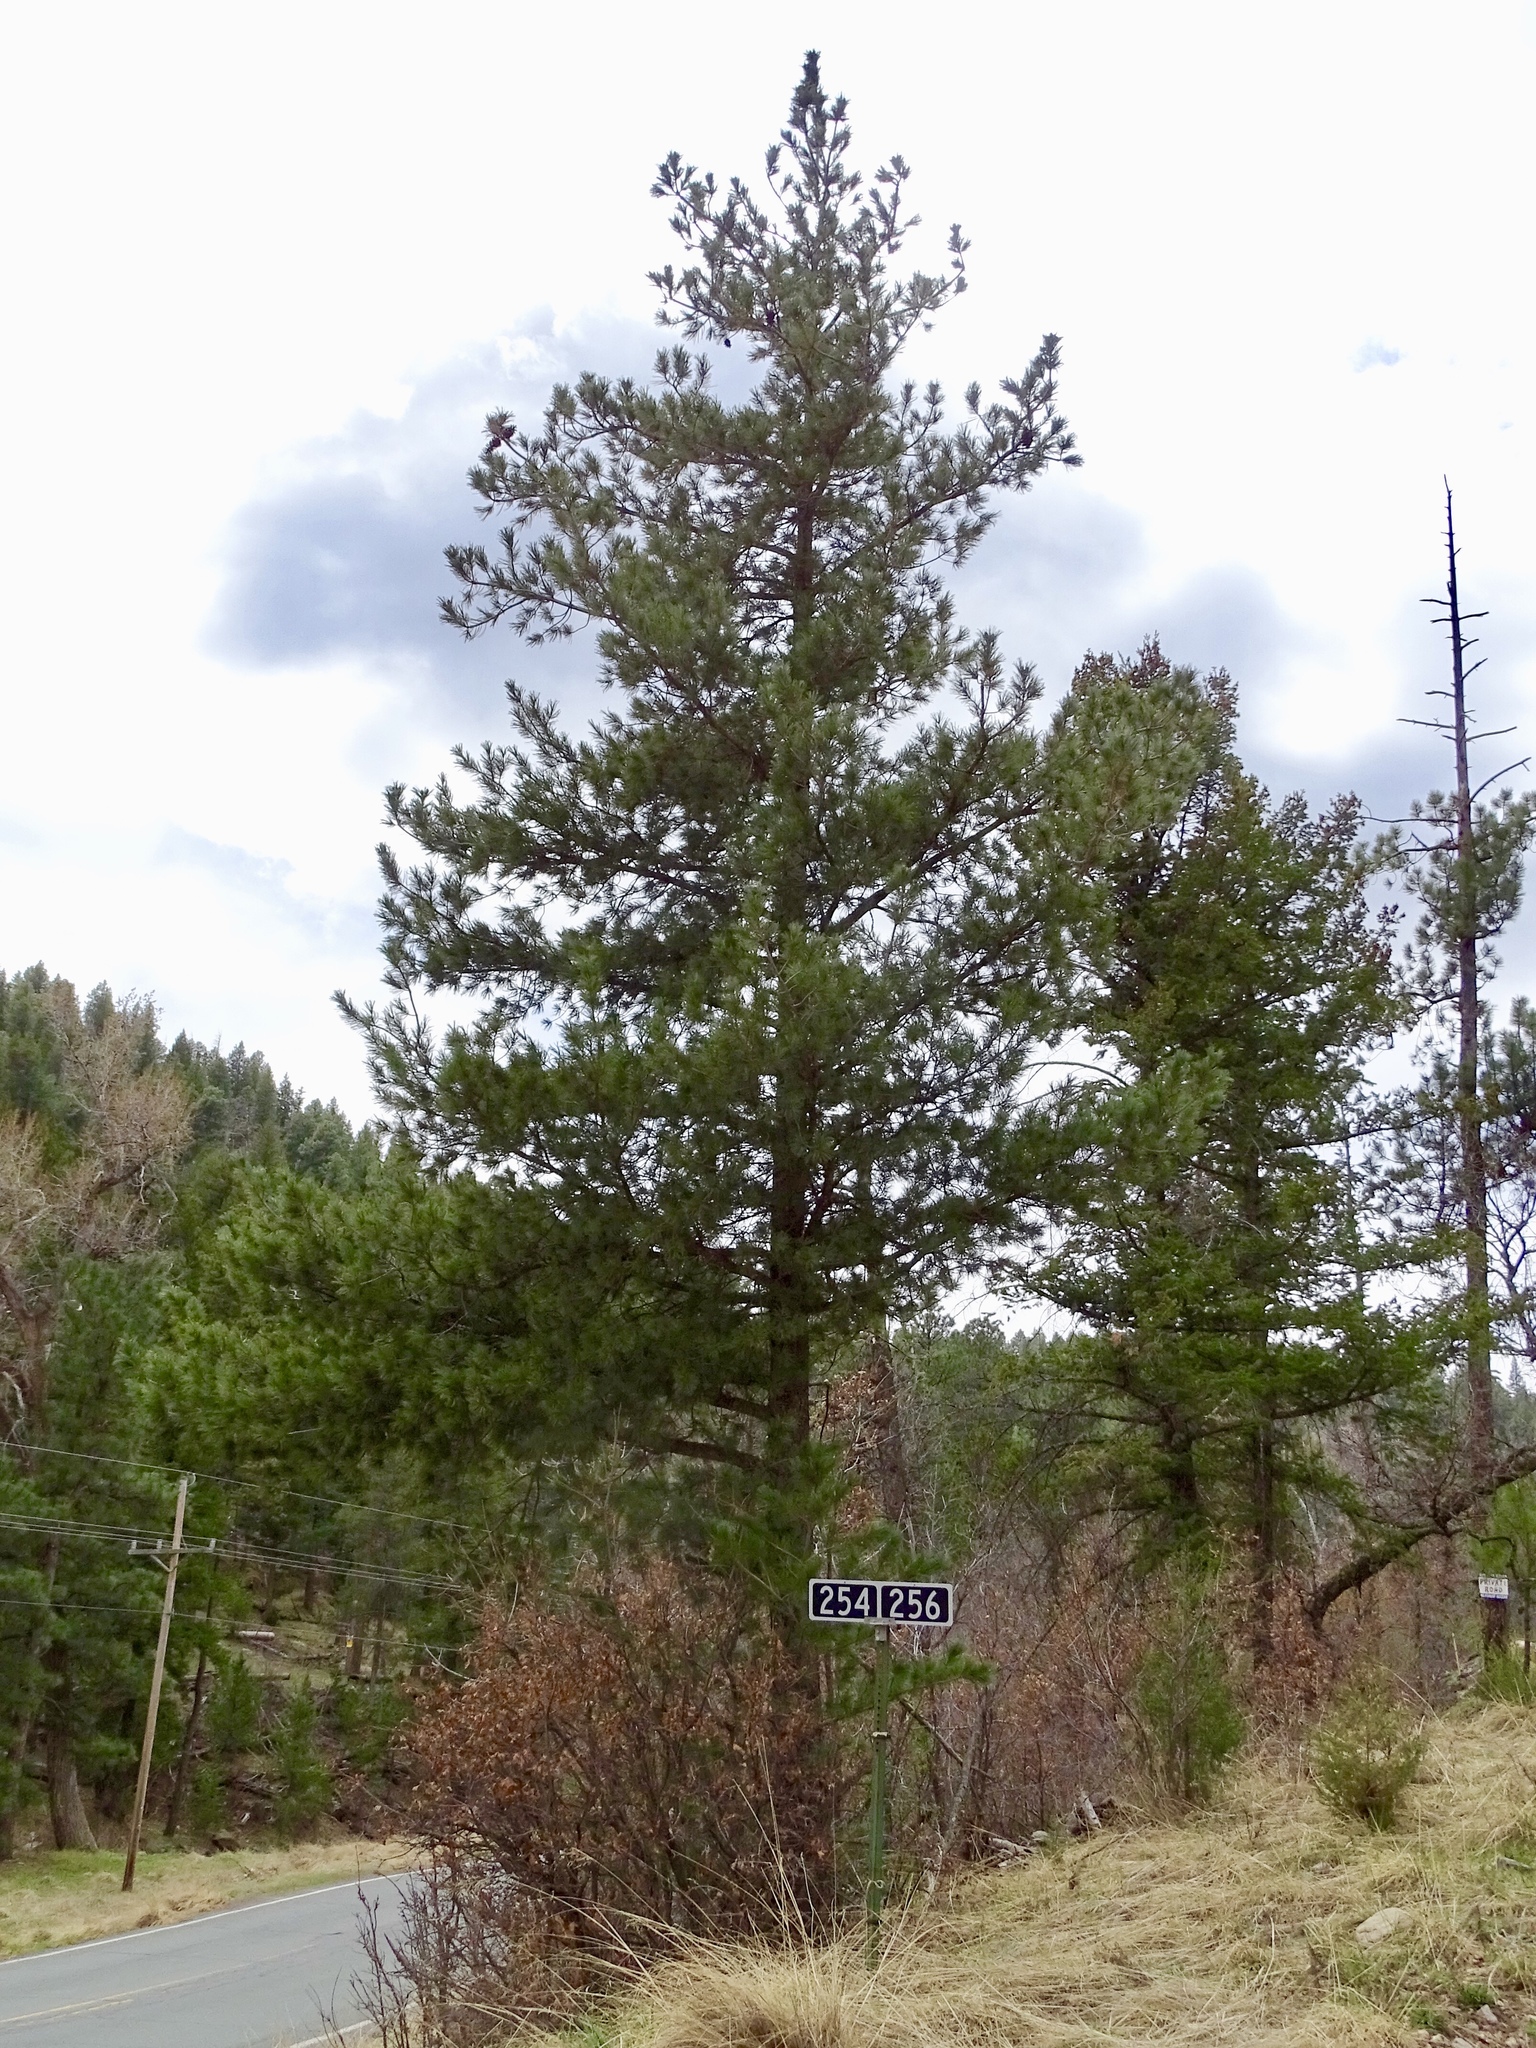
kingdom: Plantae
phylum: Tracheophyta
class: Pinopsida
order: Pinales
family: Pinaceae
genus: Pinus
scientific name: Pinus strobiformis
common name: Southwestern white pine
